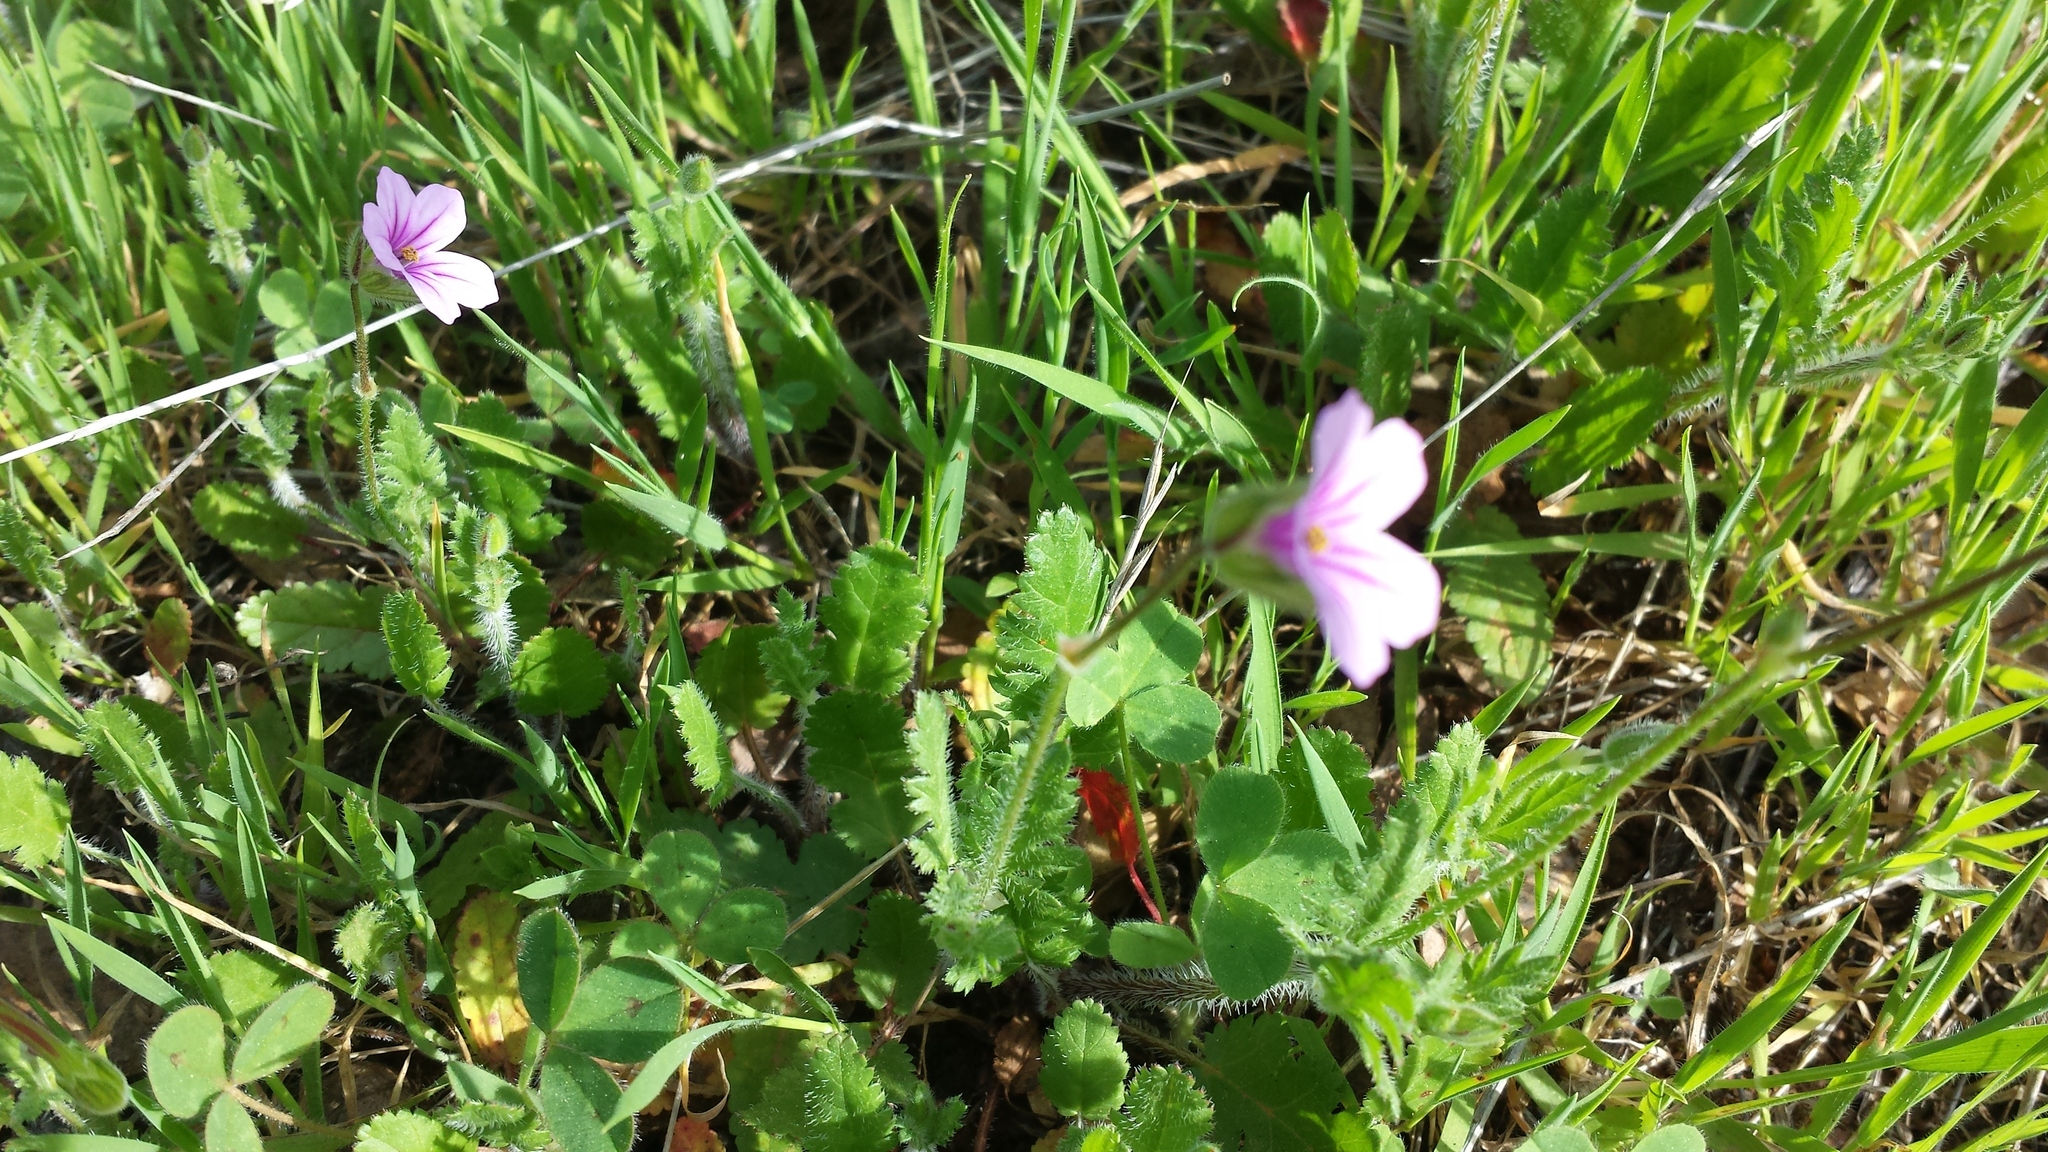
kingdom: Plantae
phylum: Tracheophyta
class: Magnoliopsida
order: Geraniales
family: Geraniaceae
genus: Erodium
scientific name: Erodium botrys
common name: Mediterranean stork's-bill
